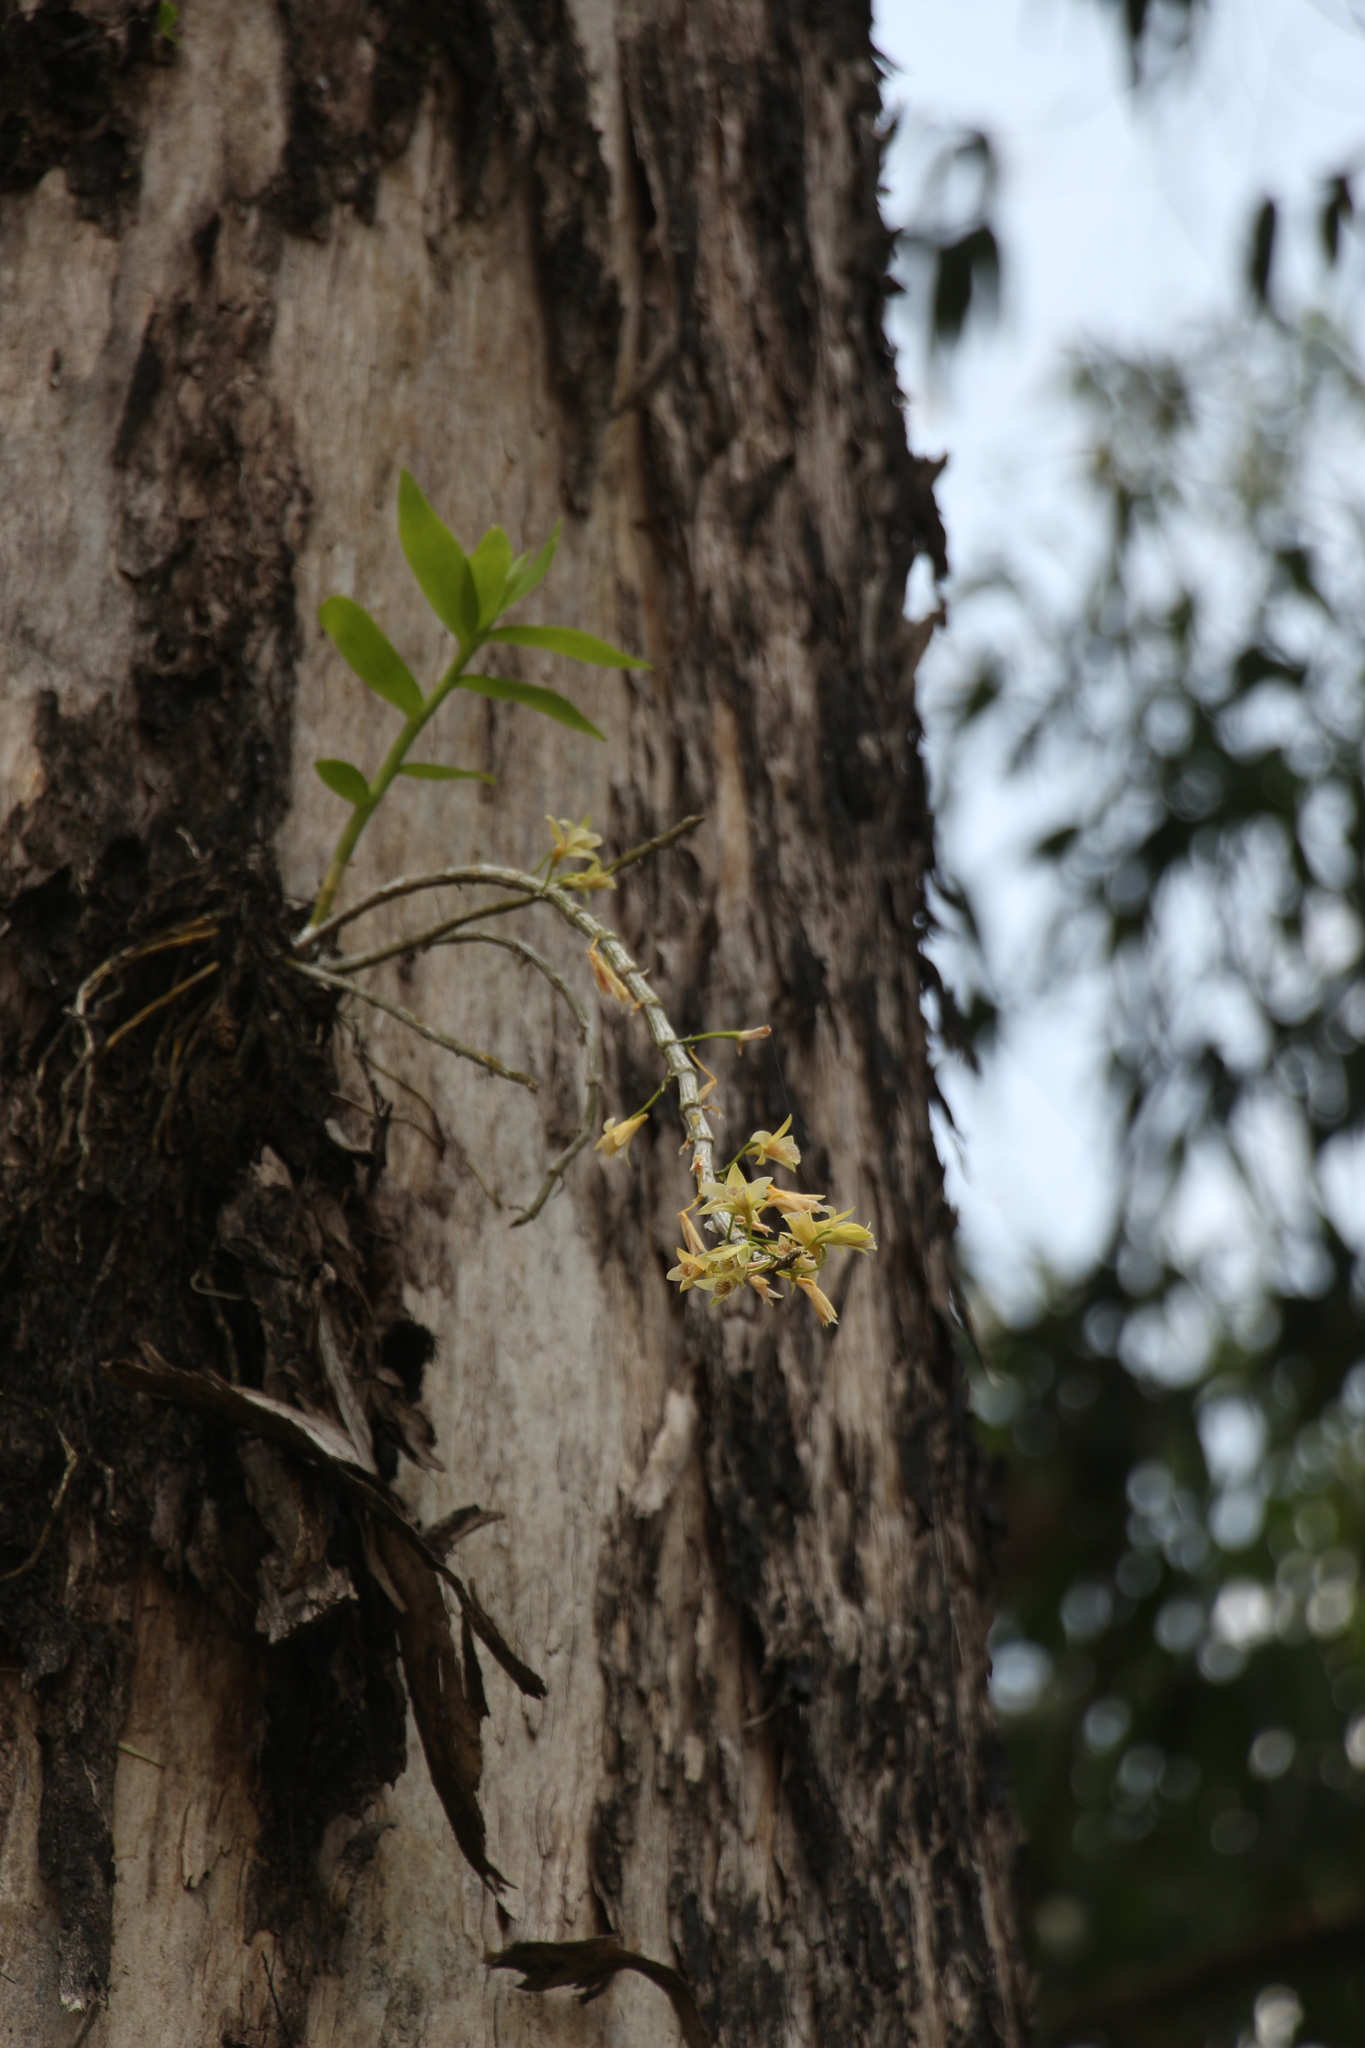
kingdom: Plantae
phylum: Tracheophyta
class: Liliopsida
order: Asparagales
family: Orchidaceae
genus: Dendrobium
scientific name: Dendrobium macrostachyum
